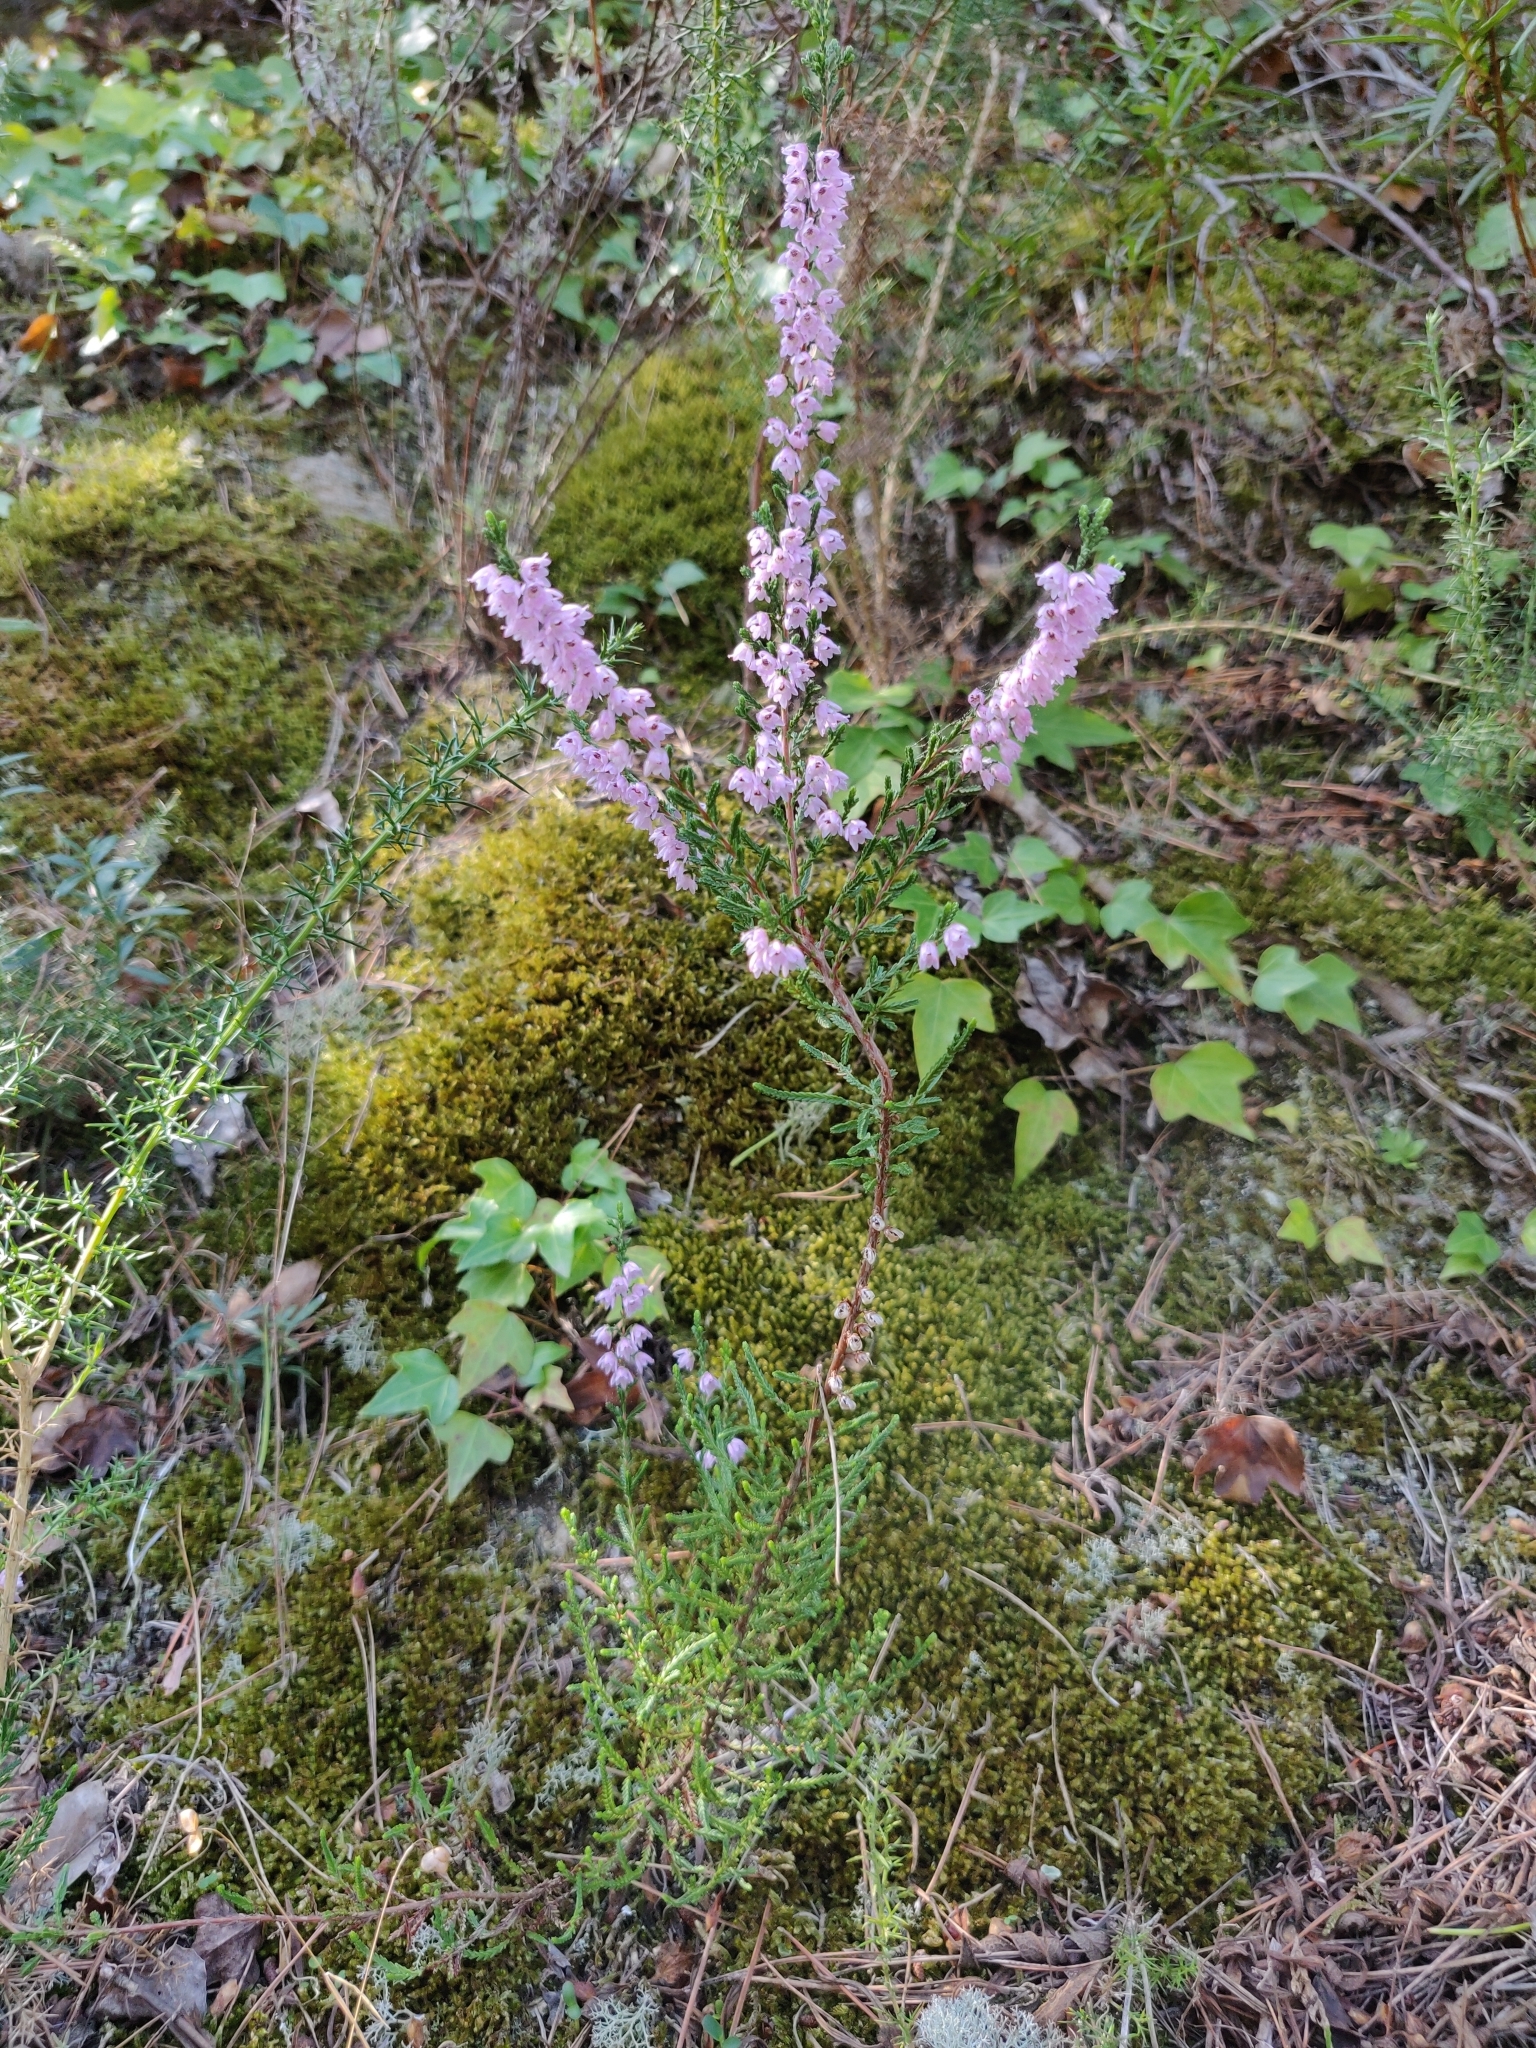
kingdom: Plantae
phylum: Tracheophyta
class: Magnoliopsida
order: Ericales
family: Ericaceae
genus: Calluna
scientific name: Calluna vulgaris
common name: Heather
